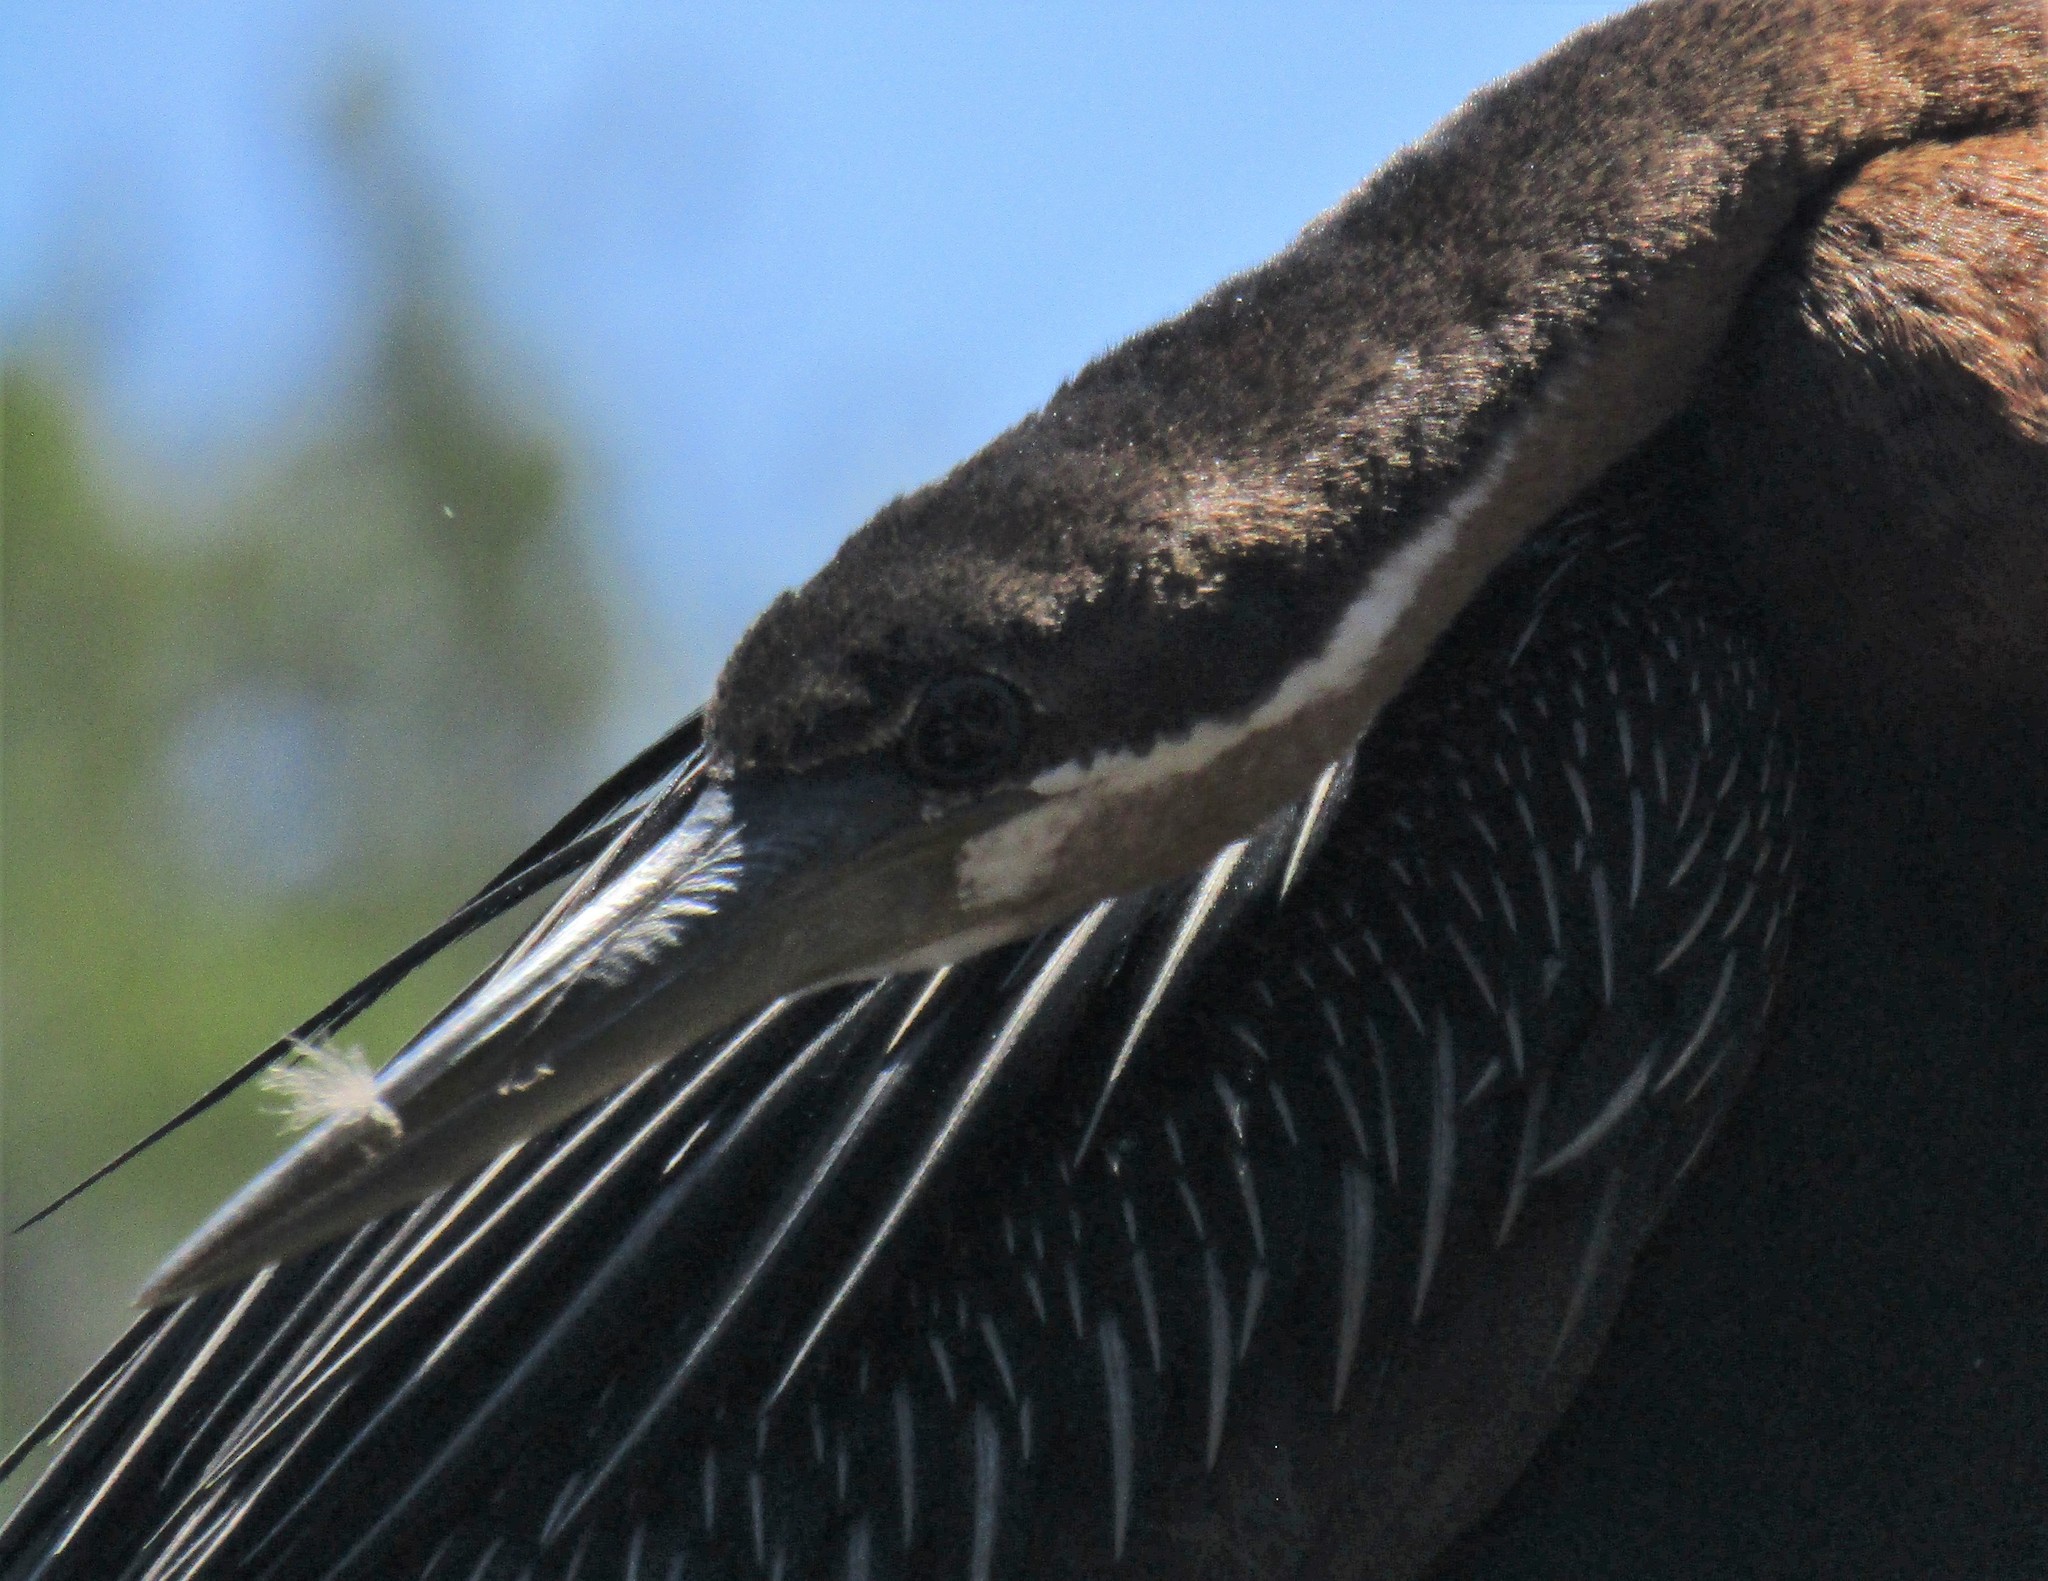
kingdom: Animalia
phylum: Chordata
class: Aves
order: Suliformes
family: Anhingidae
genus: Anhinga
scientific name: Anhinga rufa
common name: African darter
